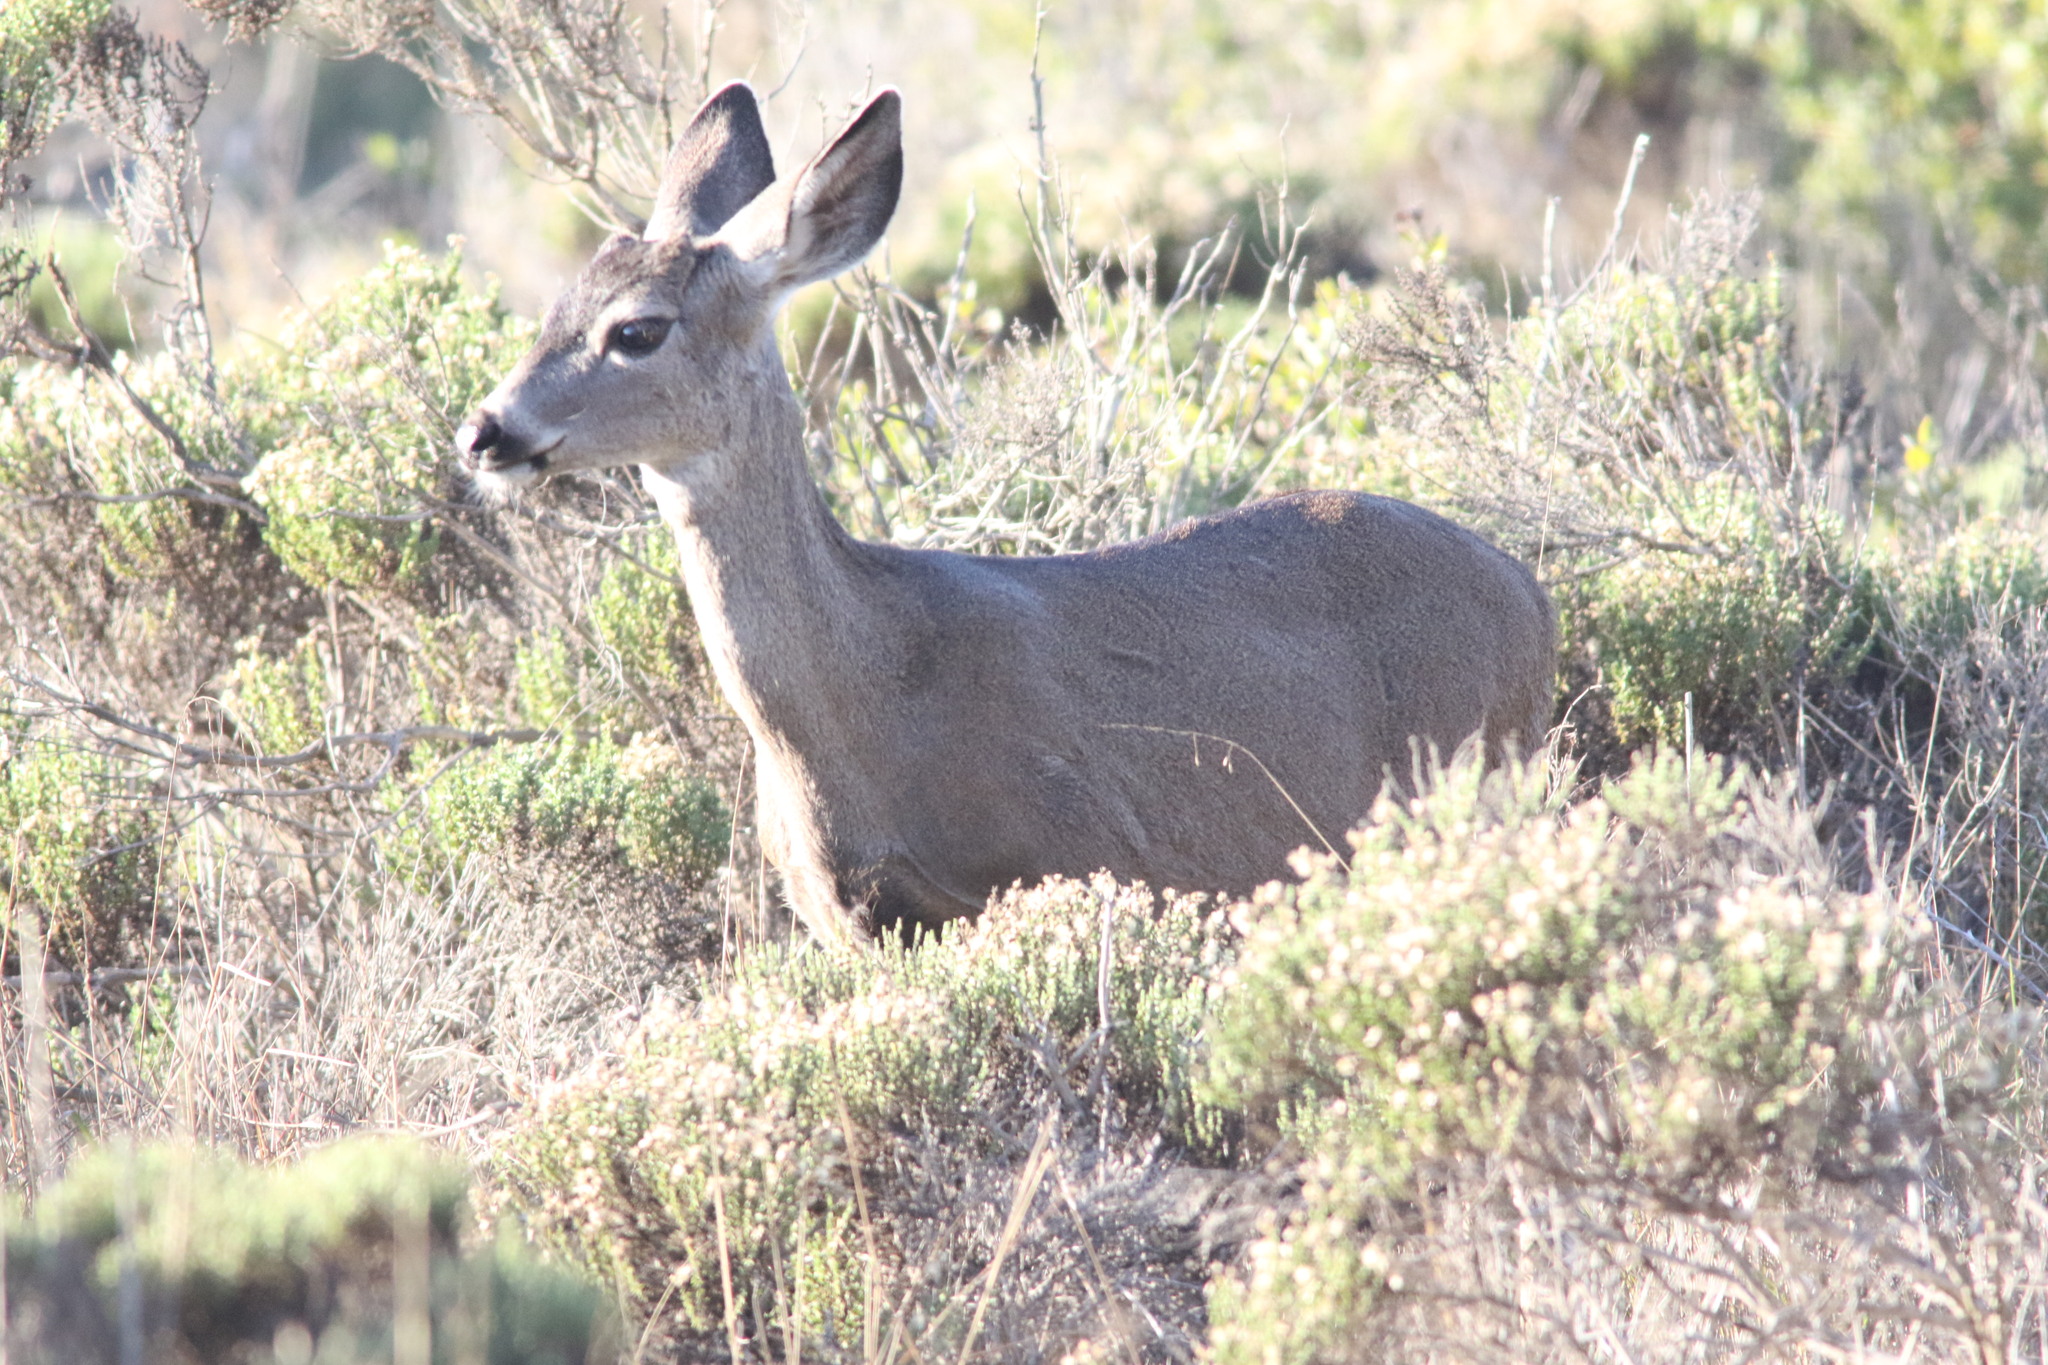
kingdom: Animalia
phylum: Chordata
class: Mammalia
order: Artiodactyla
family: Cervidae
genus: Odocoileus
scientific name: Odocoileus hemionus
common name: Mule deer
